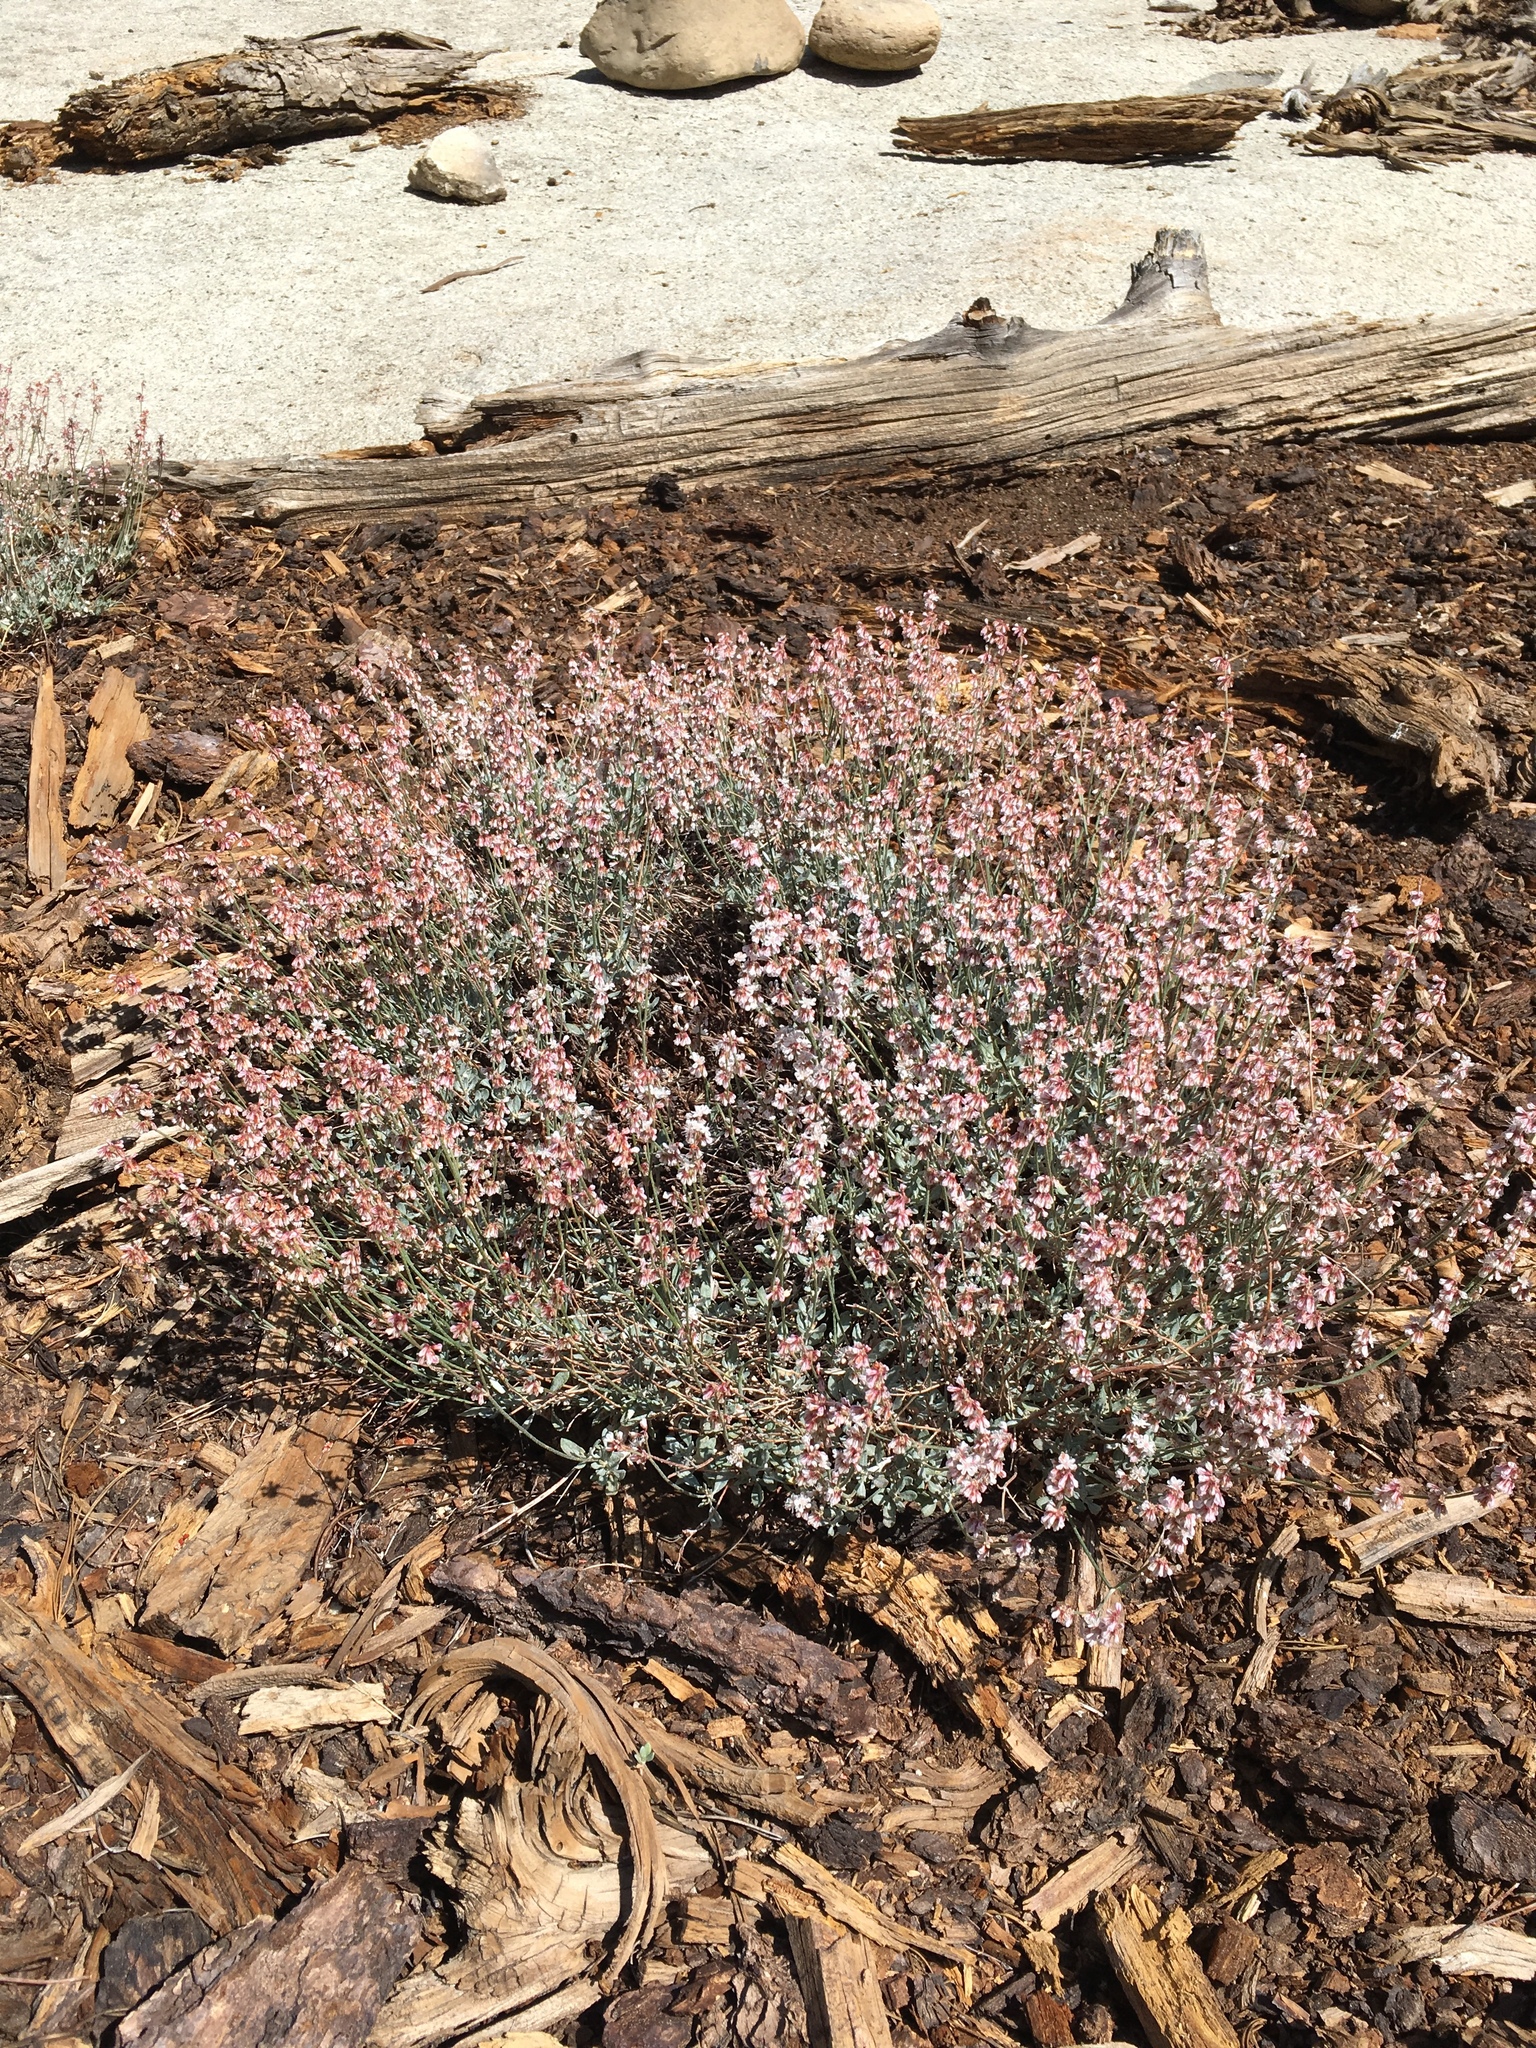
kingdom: Plantae
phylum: Tracheophyta
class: Magnoliopsida
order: Caryophyllales
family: Polygonaceae
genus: Eriogonum
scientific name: Eriogonum wrightii
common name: Bastard-sage
